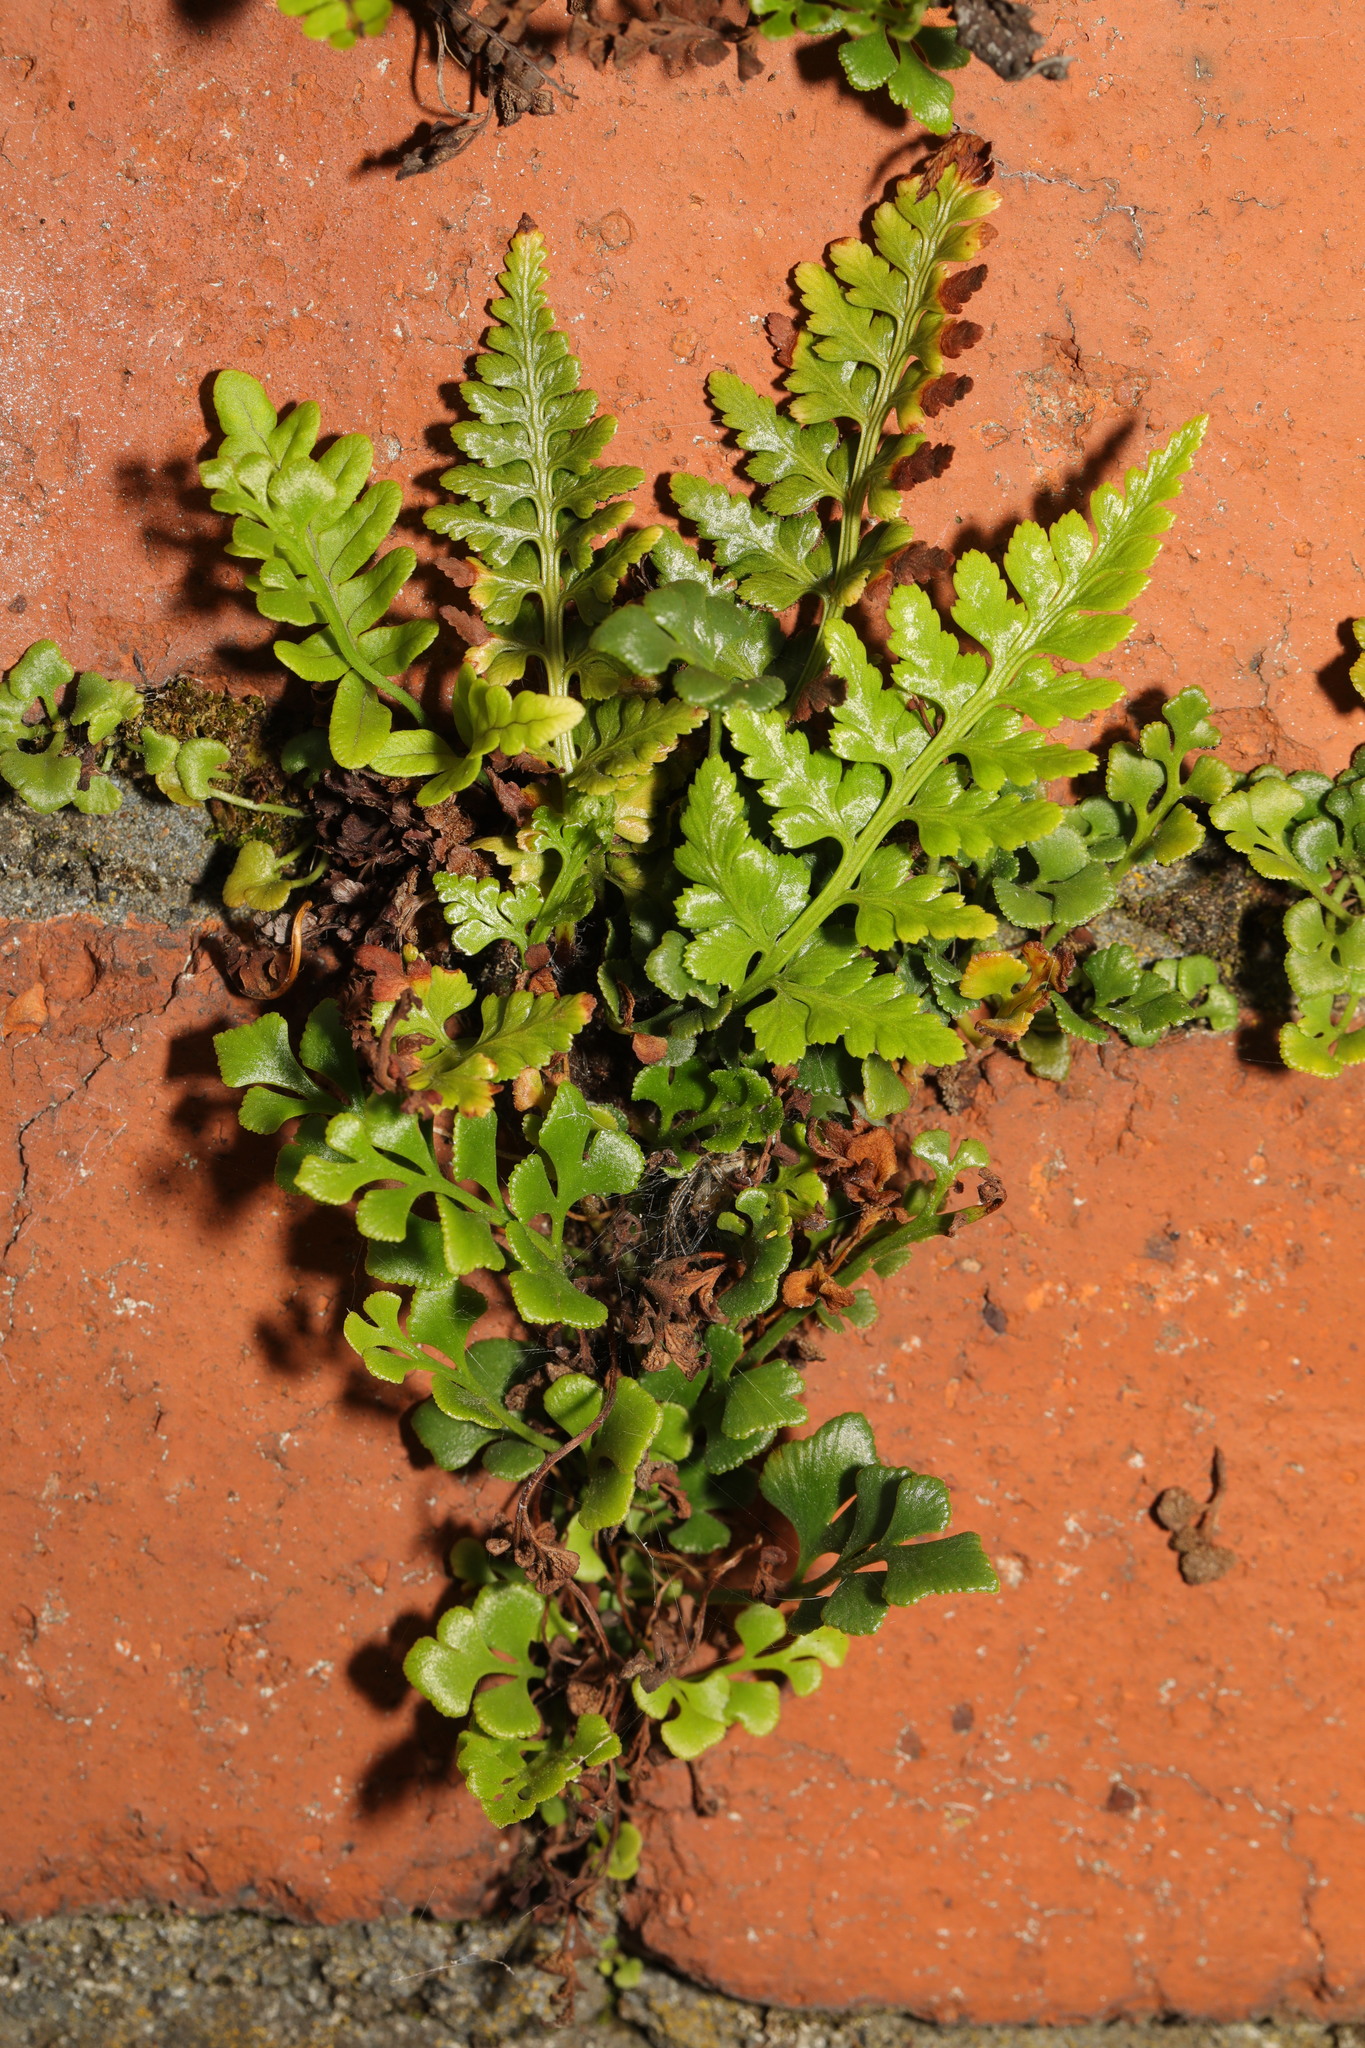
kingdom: Plantae
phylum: Tracheophyta
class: Polypodiopsida
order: Polypodiales
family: Aspleniaceae
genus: Asplenium
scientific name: Asplenium adiantum-nigrum
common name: Black spleenwort
